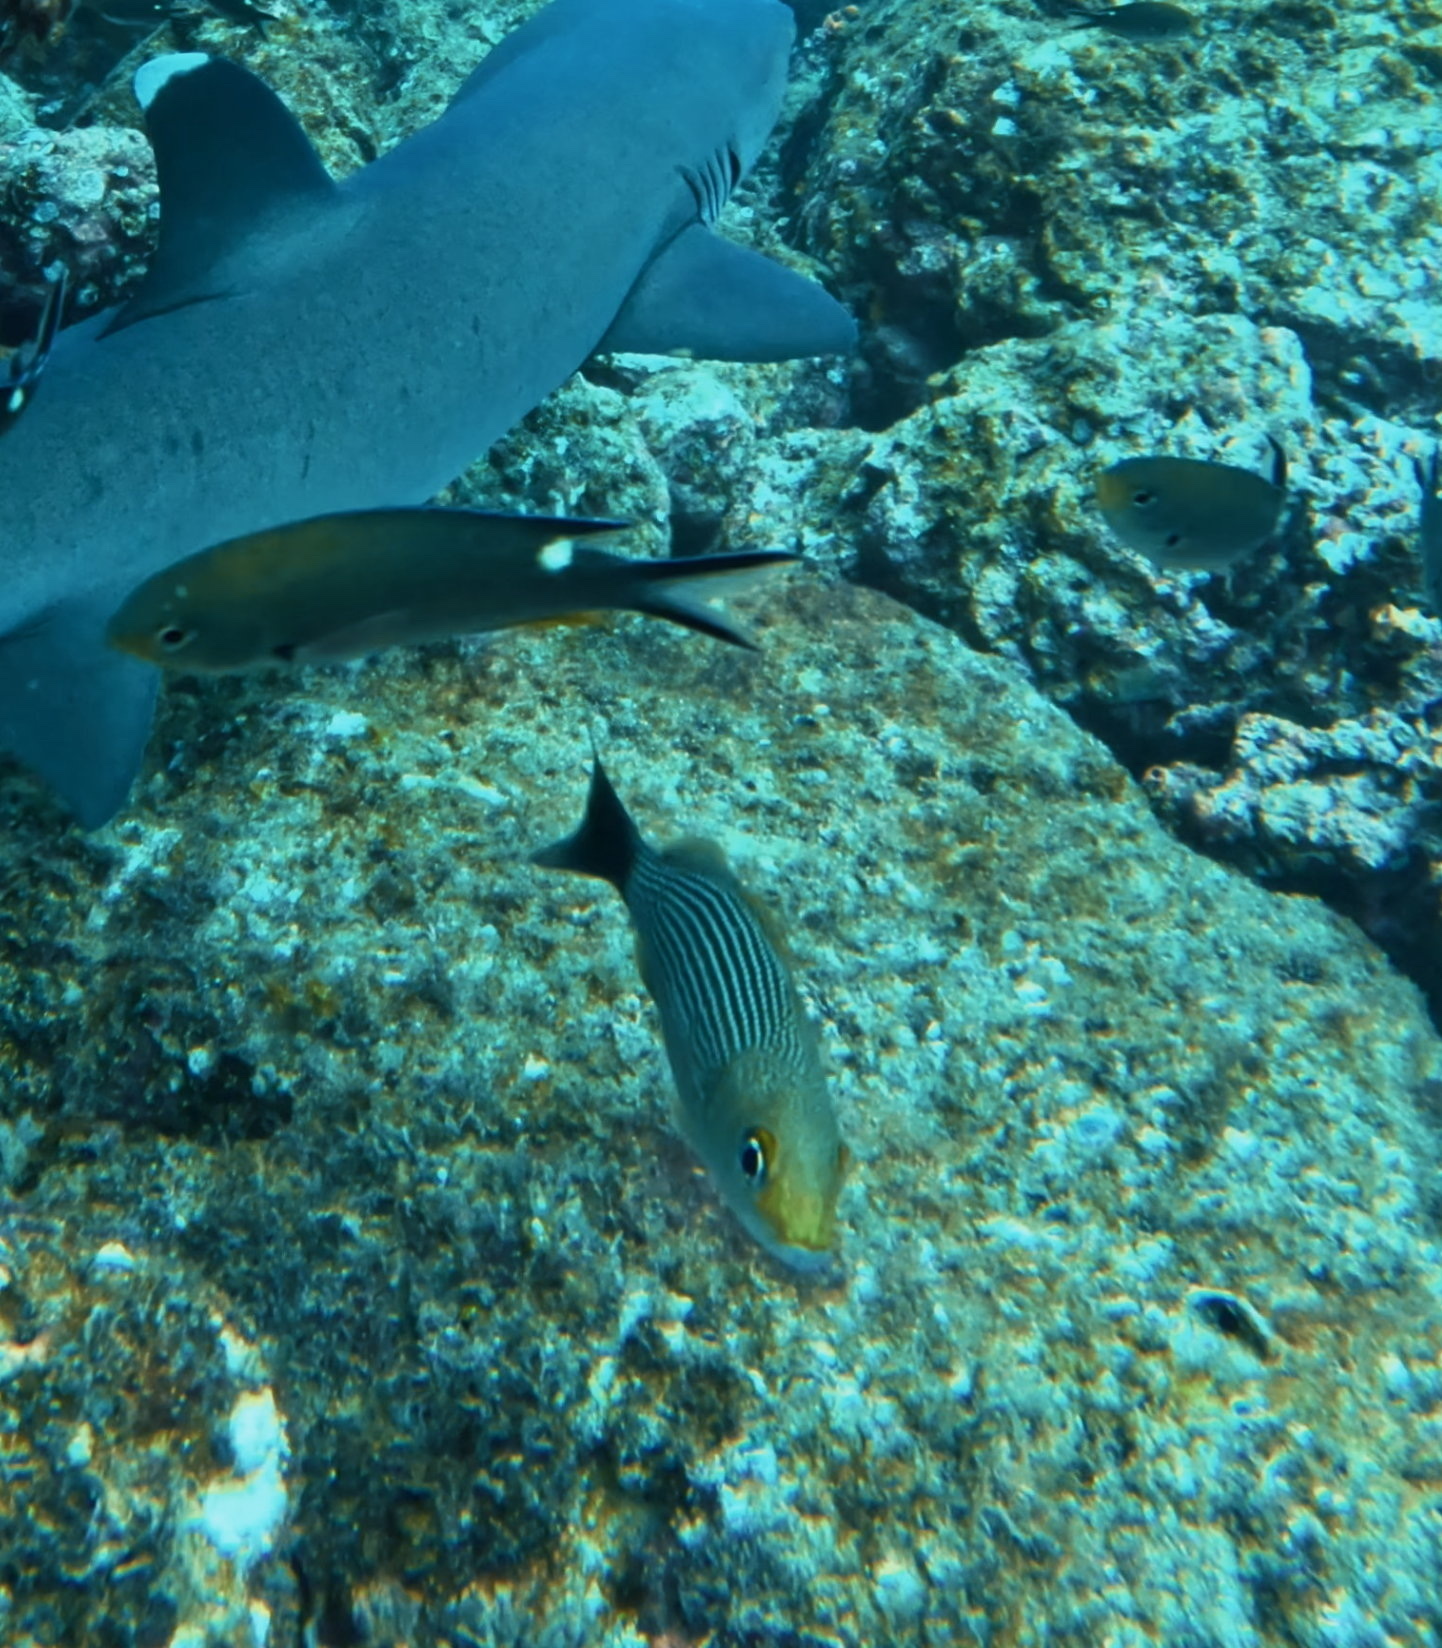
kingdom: Animalia
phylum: Chordata
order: Perciformes
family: Haemulidae
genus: Haemulon
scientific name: Haemulon maculicauda
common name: Spottail grunt
